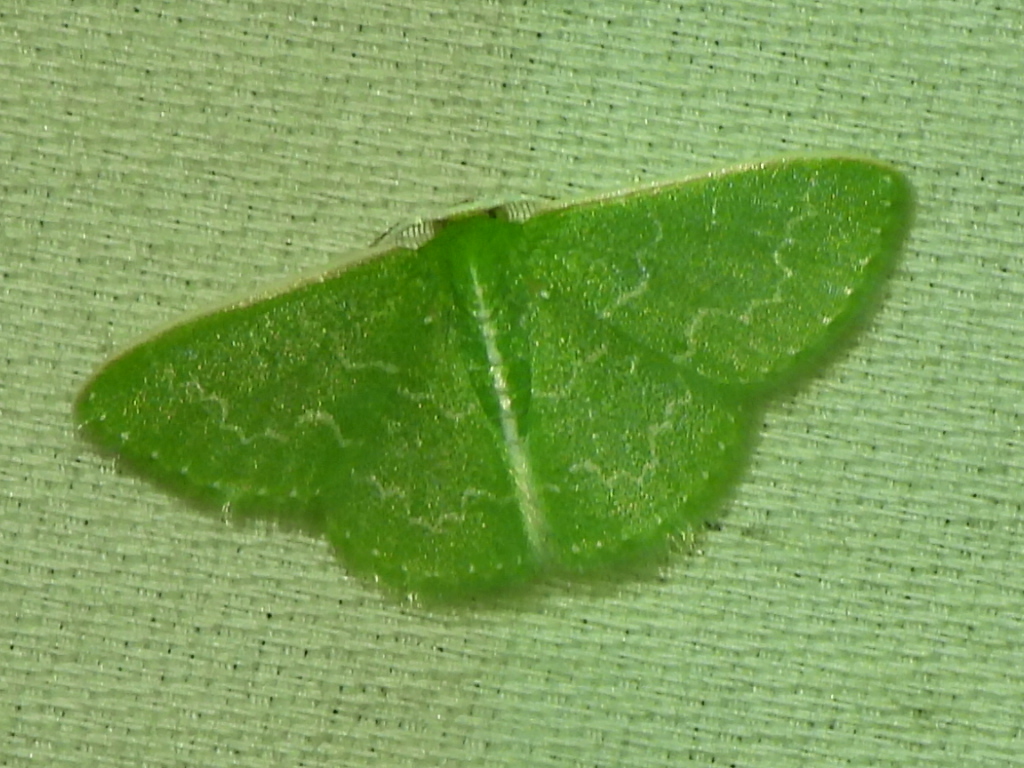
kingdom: Animalia
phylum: Arthropoda
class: Insecta
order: Lepidoptera
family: Geometridae
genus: Synchlora
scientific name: Synchlora frondaria
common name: Southern emerald
